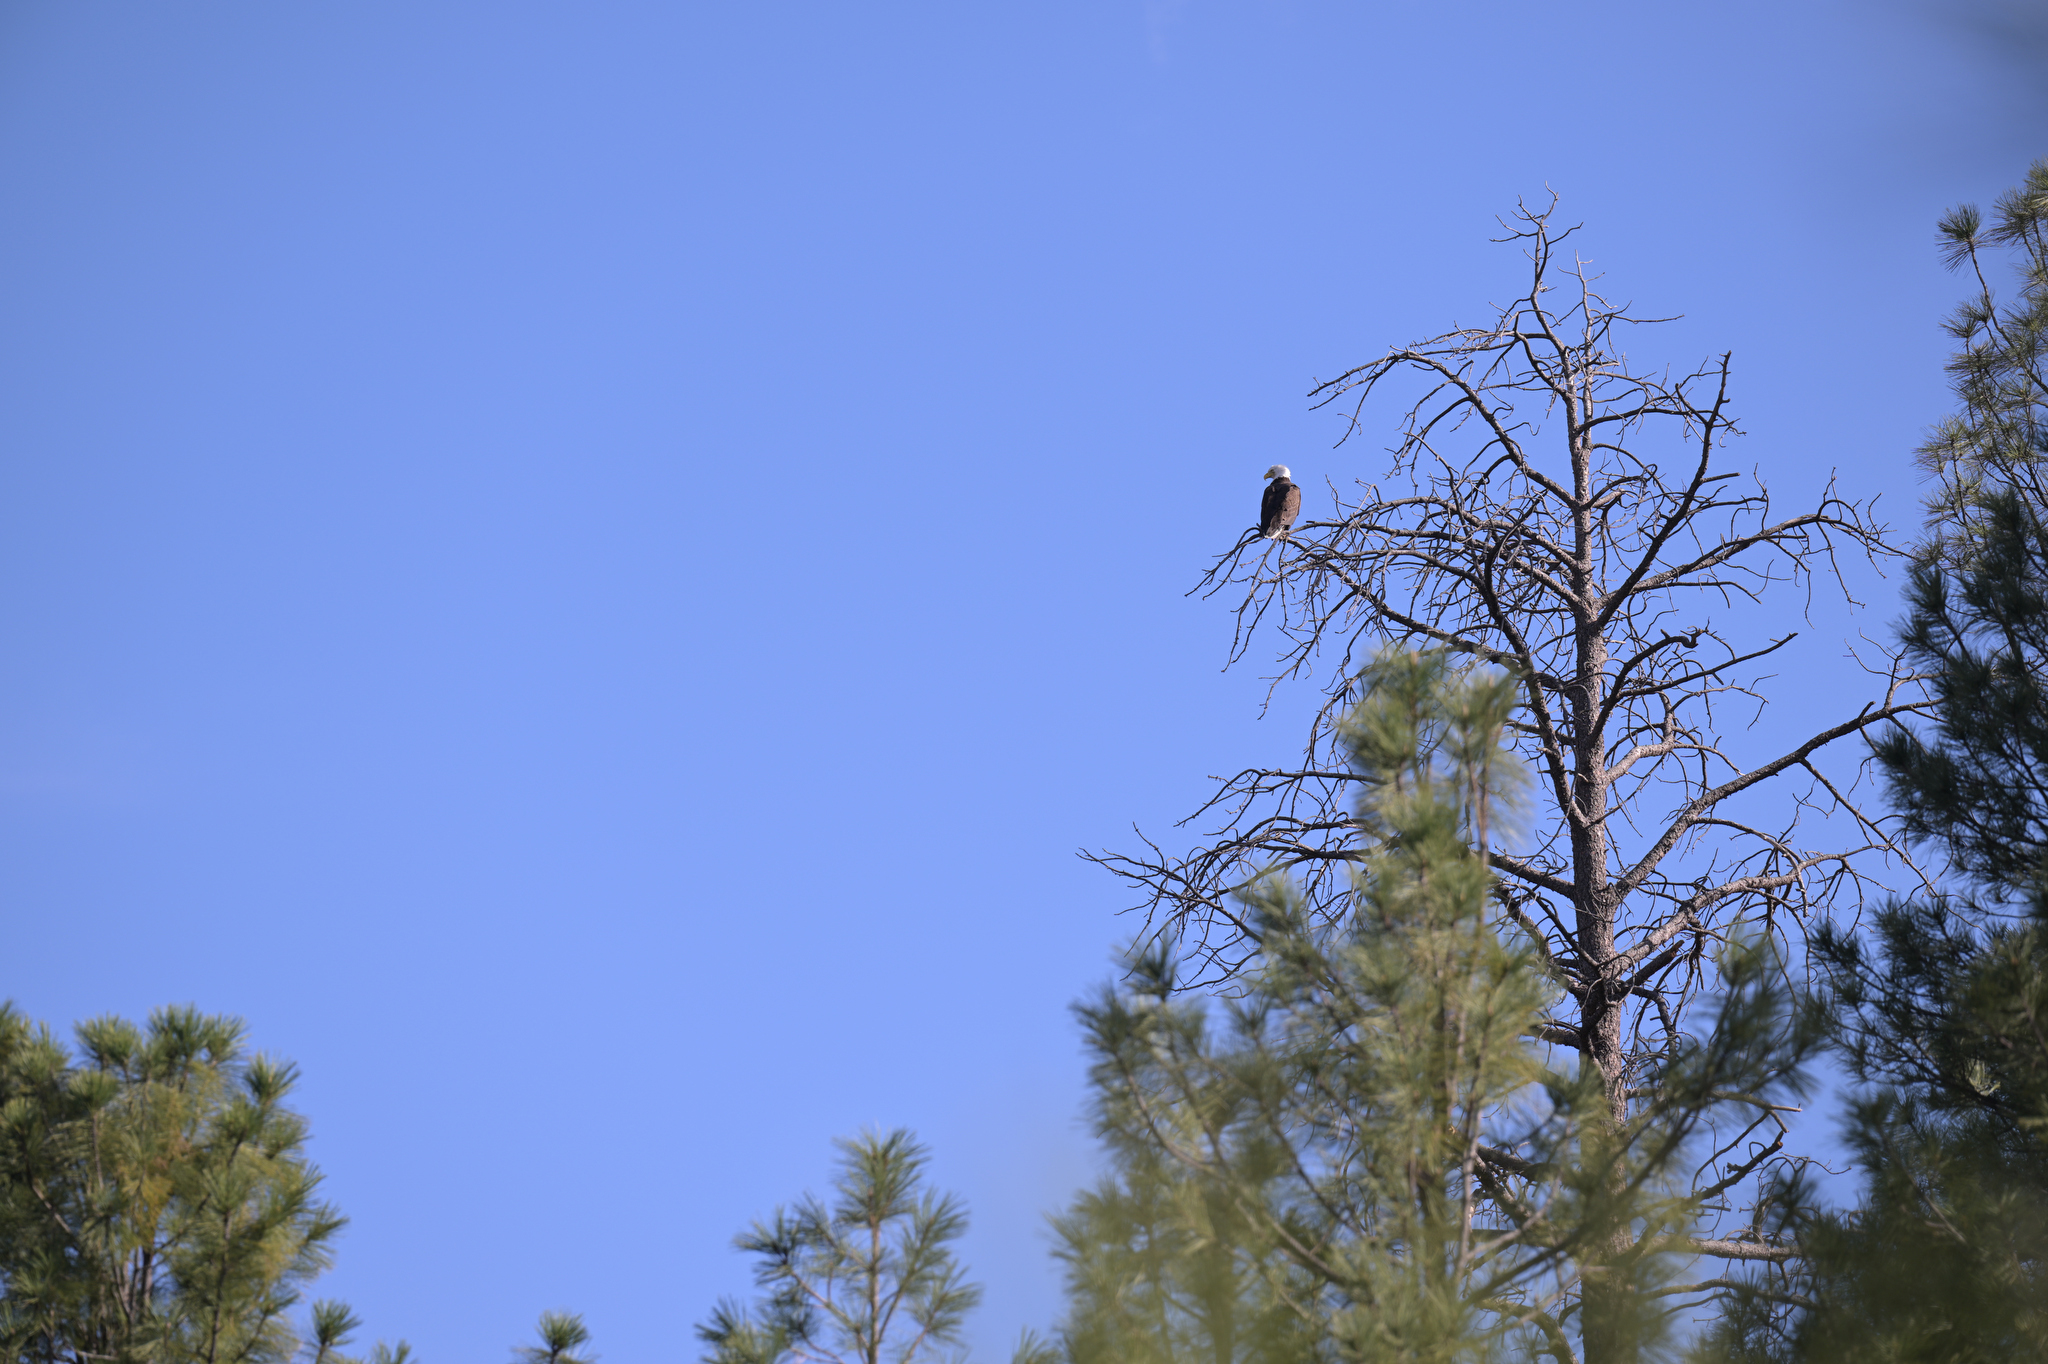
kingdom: Animalia
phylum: Chordata
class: Aves
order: Accipitriformes
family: Accipitridae
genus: Haliaeetus
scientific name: Haliaeetus leucocephalus
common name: Bald eagle
